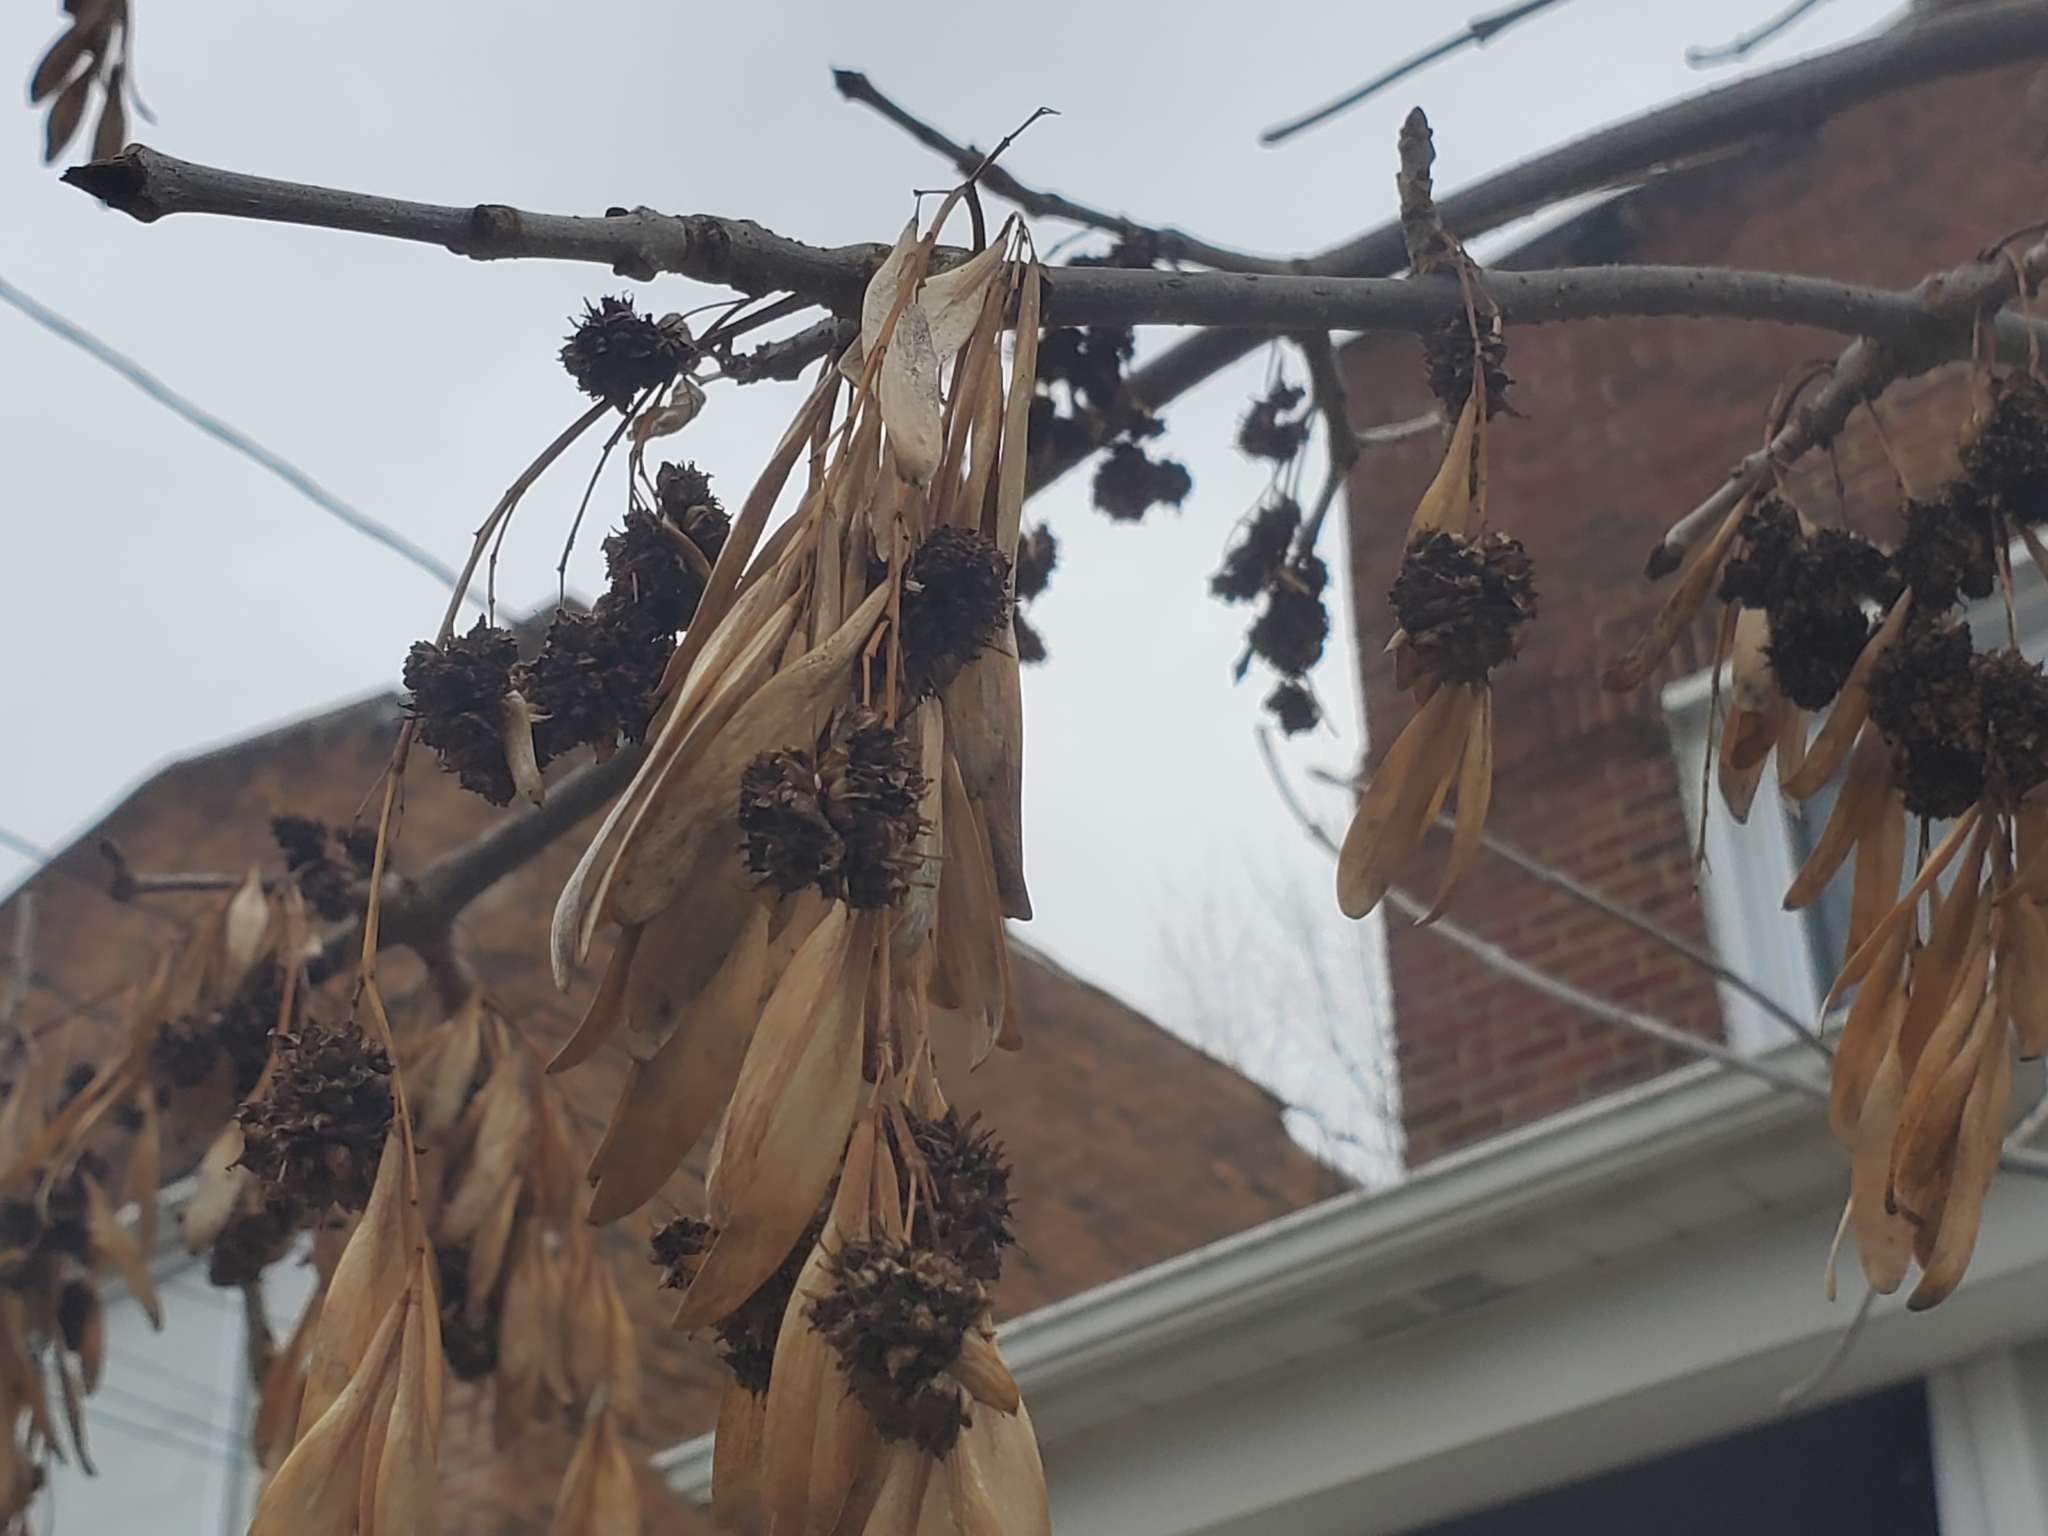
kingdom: Plantae
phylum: Tracheophyta
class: Magnoliopsida
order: Lamiales
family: Oleaceae
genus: Fraxinus
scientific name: Fraxinus pennsylvanica
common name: Green ash
